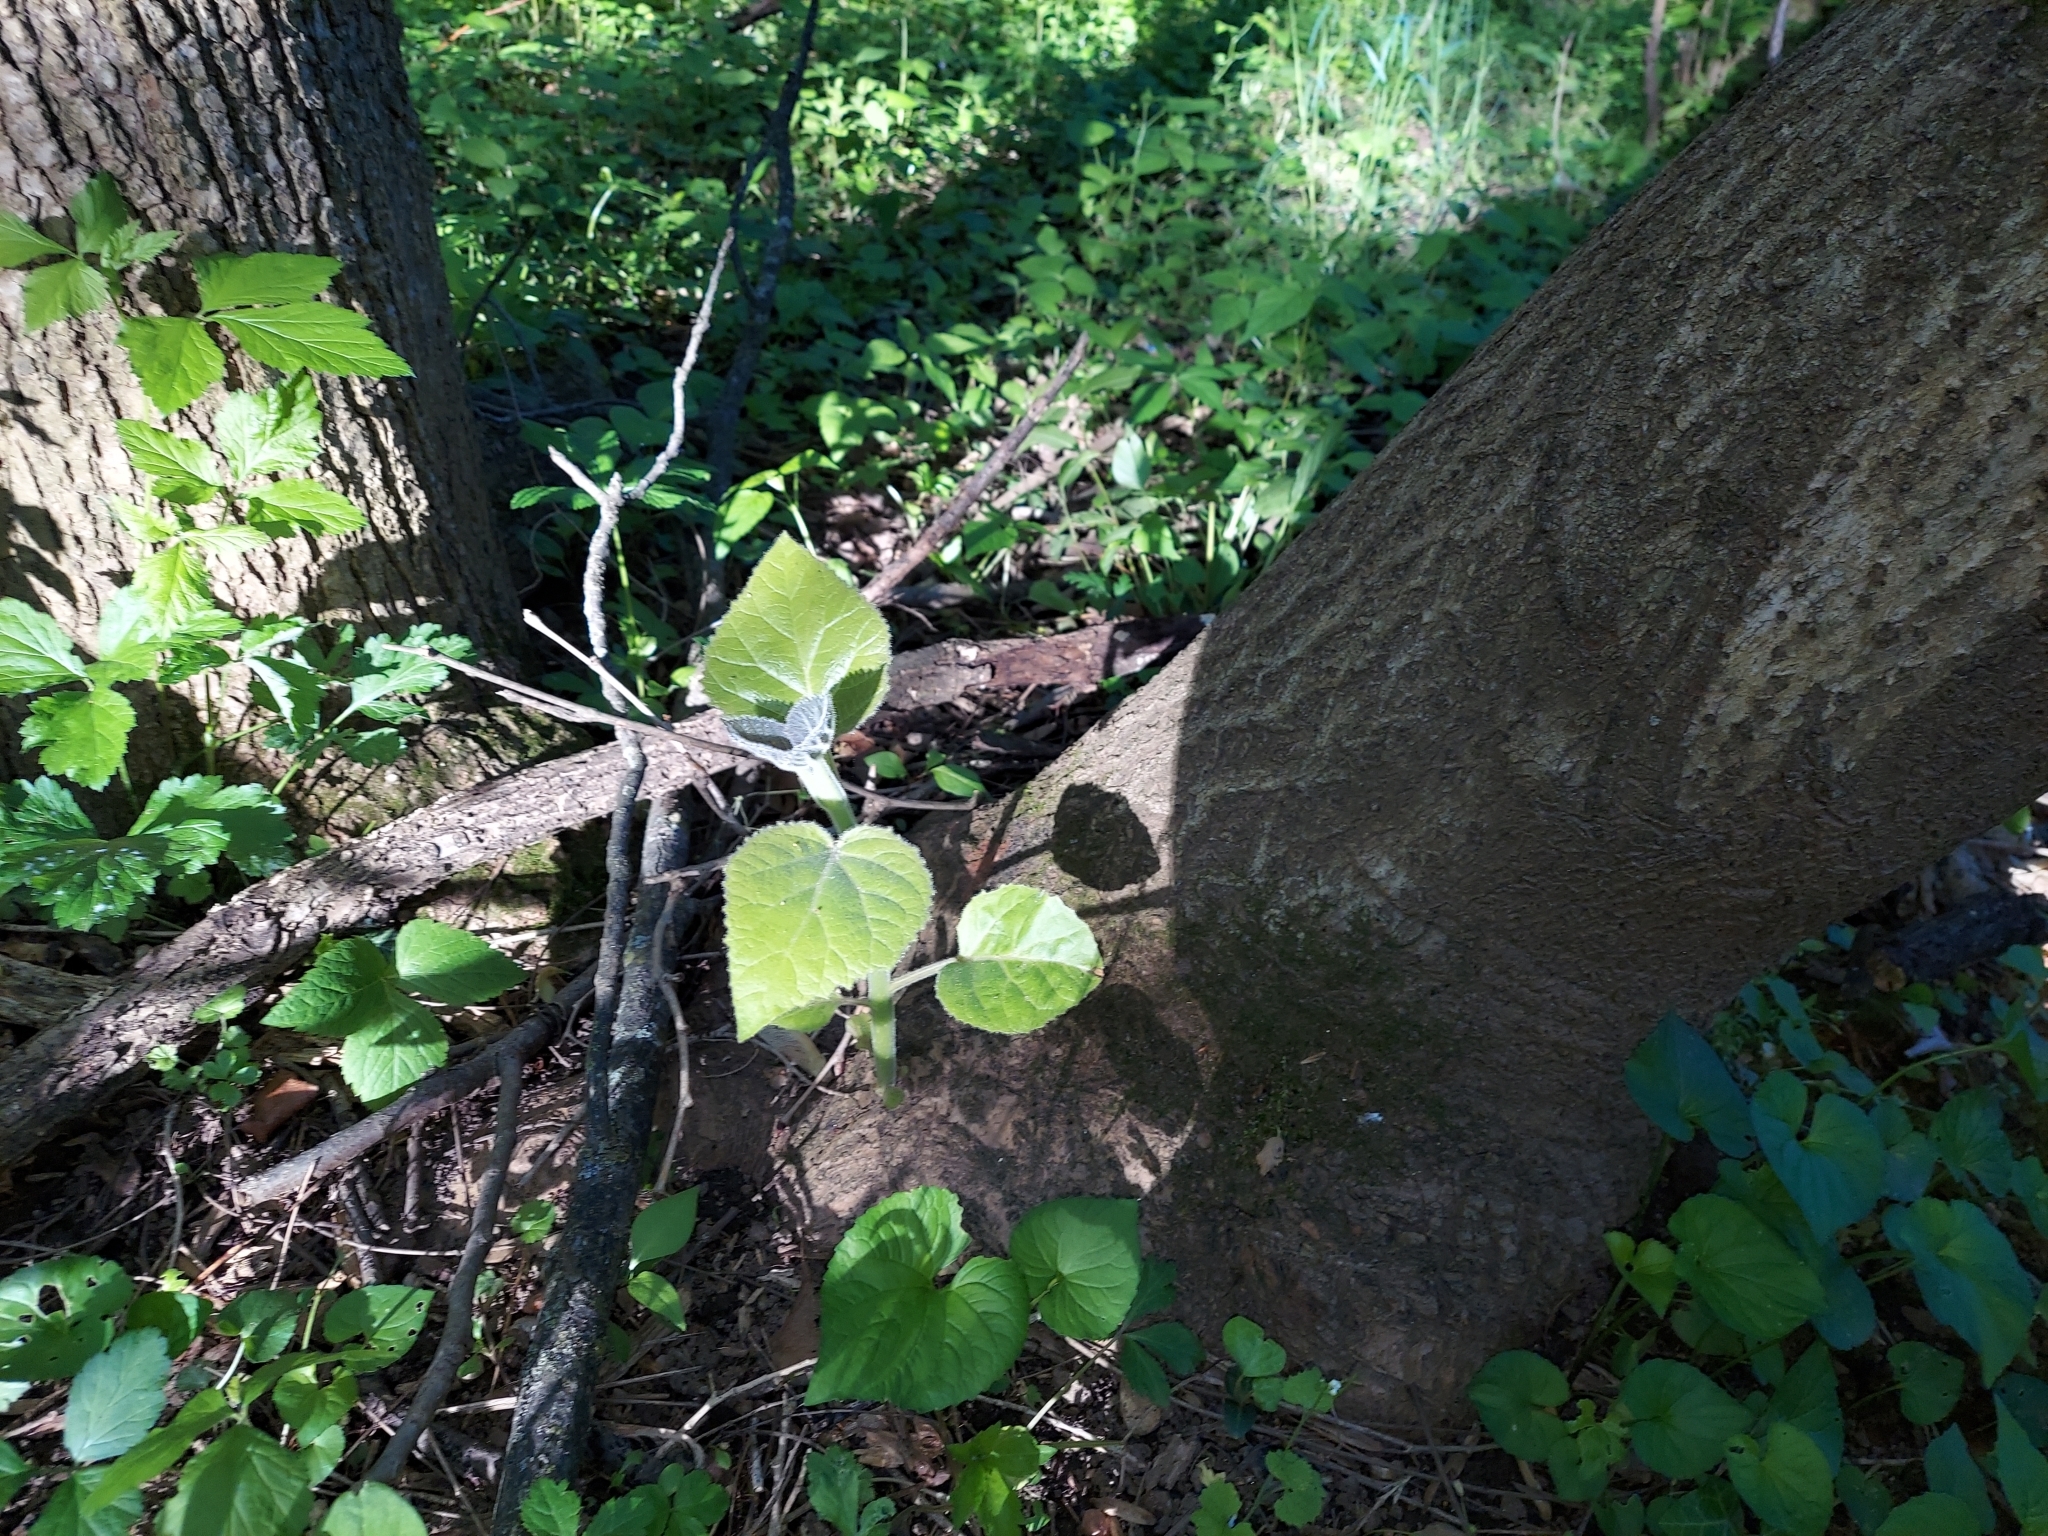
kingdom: Plantae
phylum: Tracheophyta
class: Magnoliopsida
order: Lamiales
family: Paulowniaceae
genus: Paulownia
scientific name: Paulownia tomentosa
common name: Foxglove-tree
